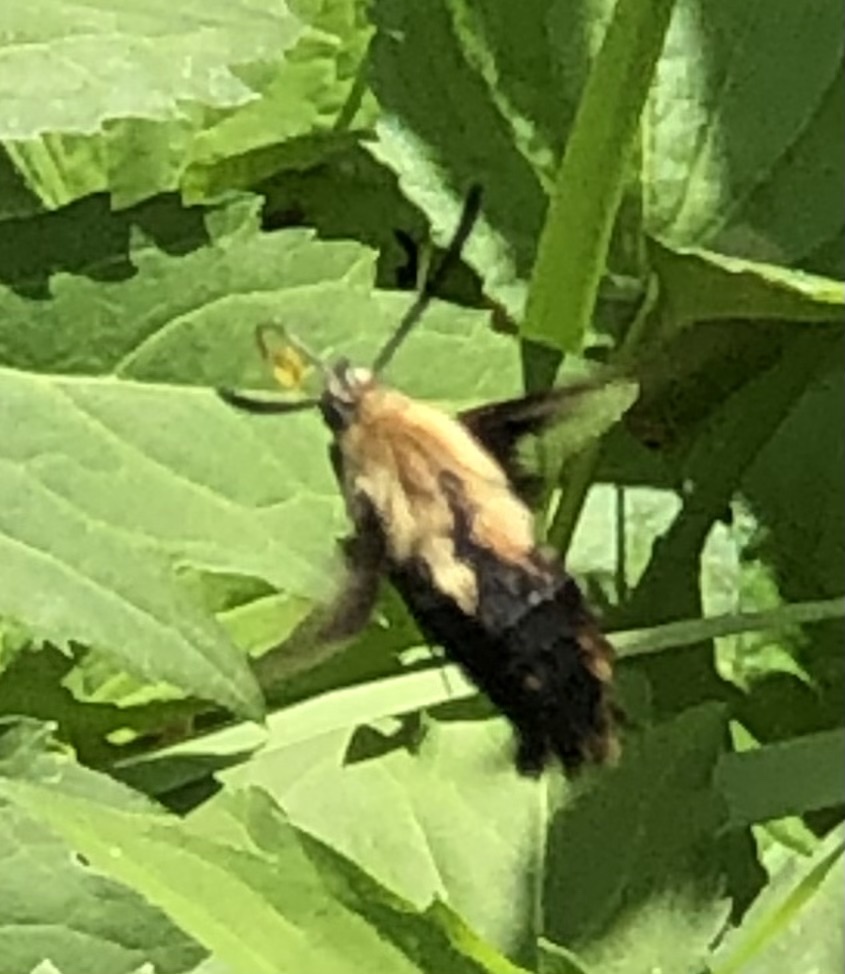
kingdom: Animalia
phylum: Arthropoda
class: Insecta
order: Lepidoptera
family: Sphingidae
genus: Hemaris
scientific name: Hemaris diffinis
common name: Bumblebee moth
